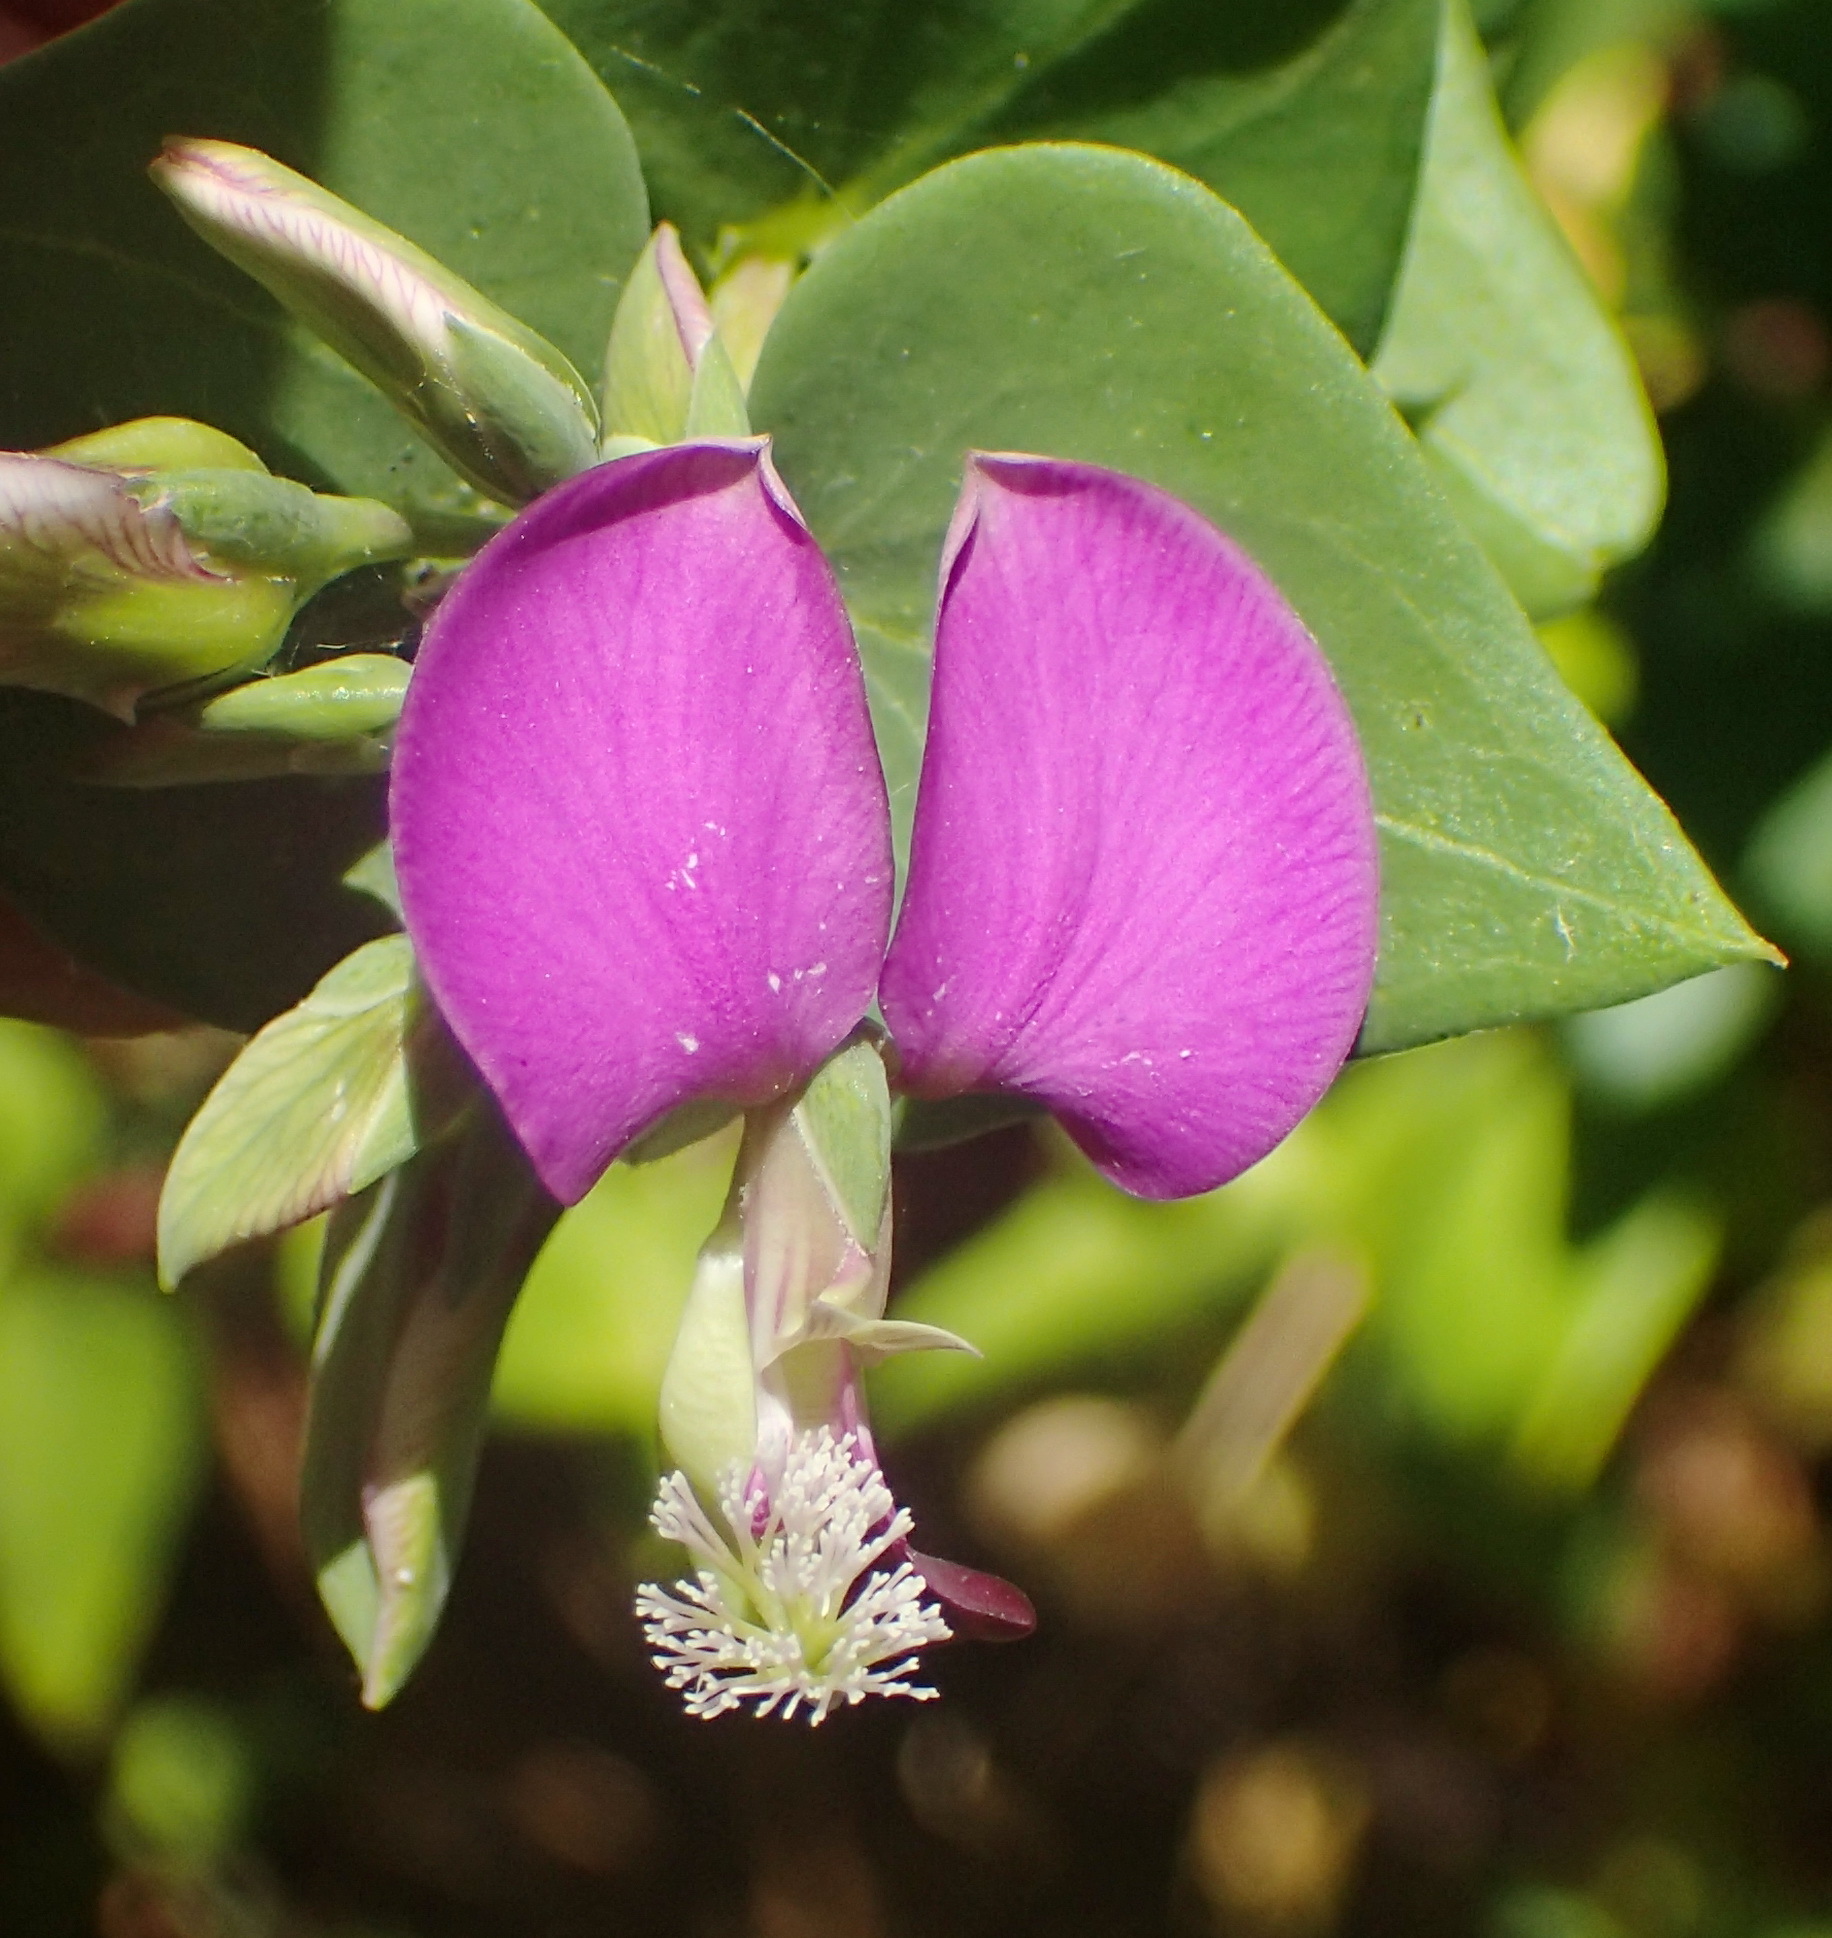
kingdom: Plantae
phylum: Tracheophyta
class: Magnoliopsida
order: Fabales
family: Polygalaceae
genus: Polygala
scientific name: Polygala fruticosa
